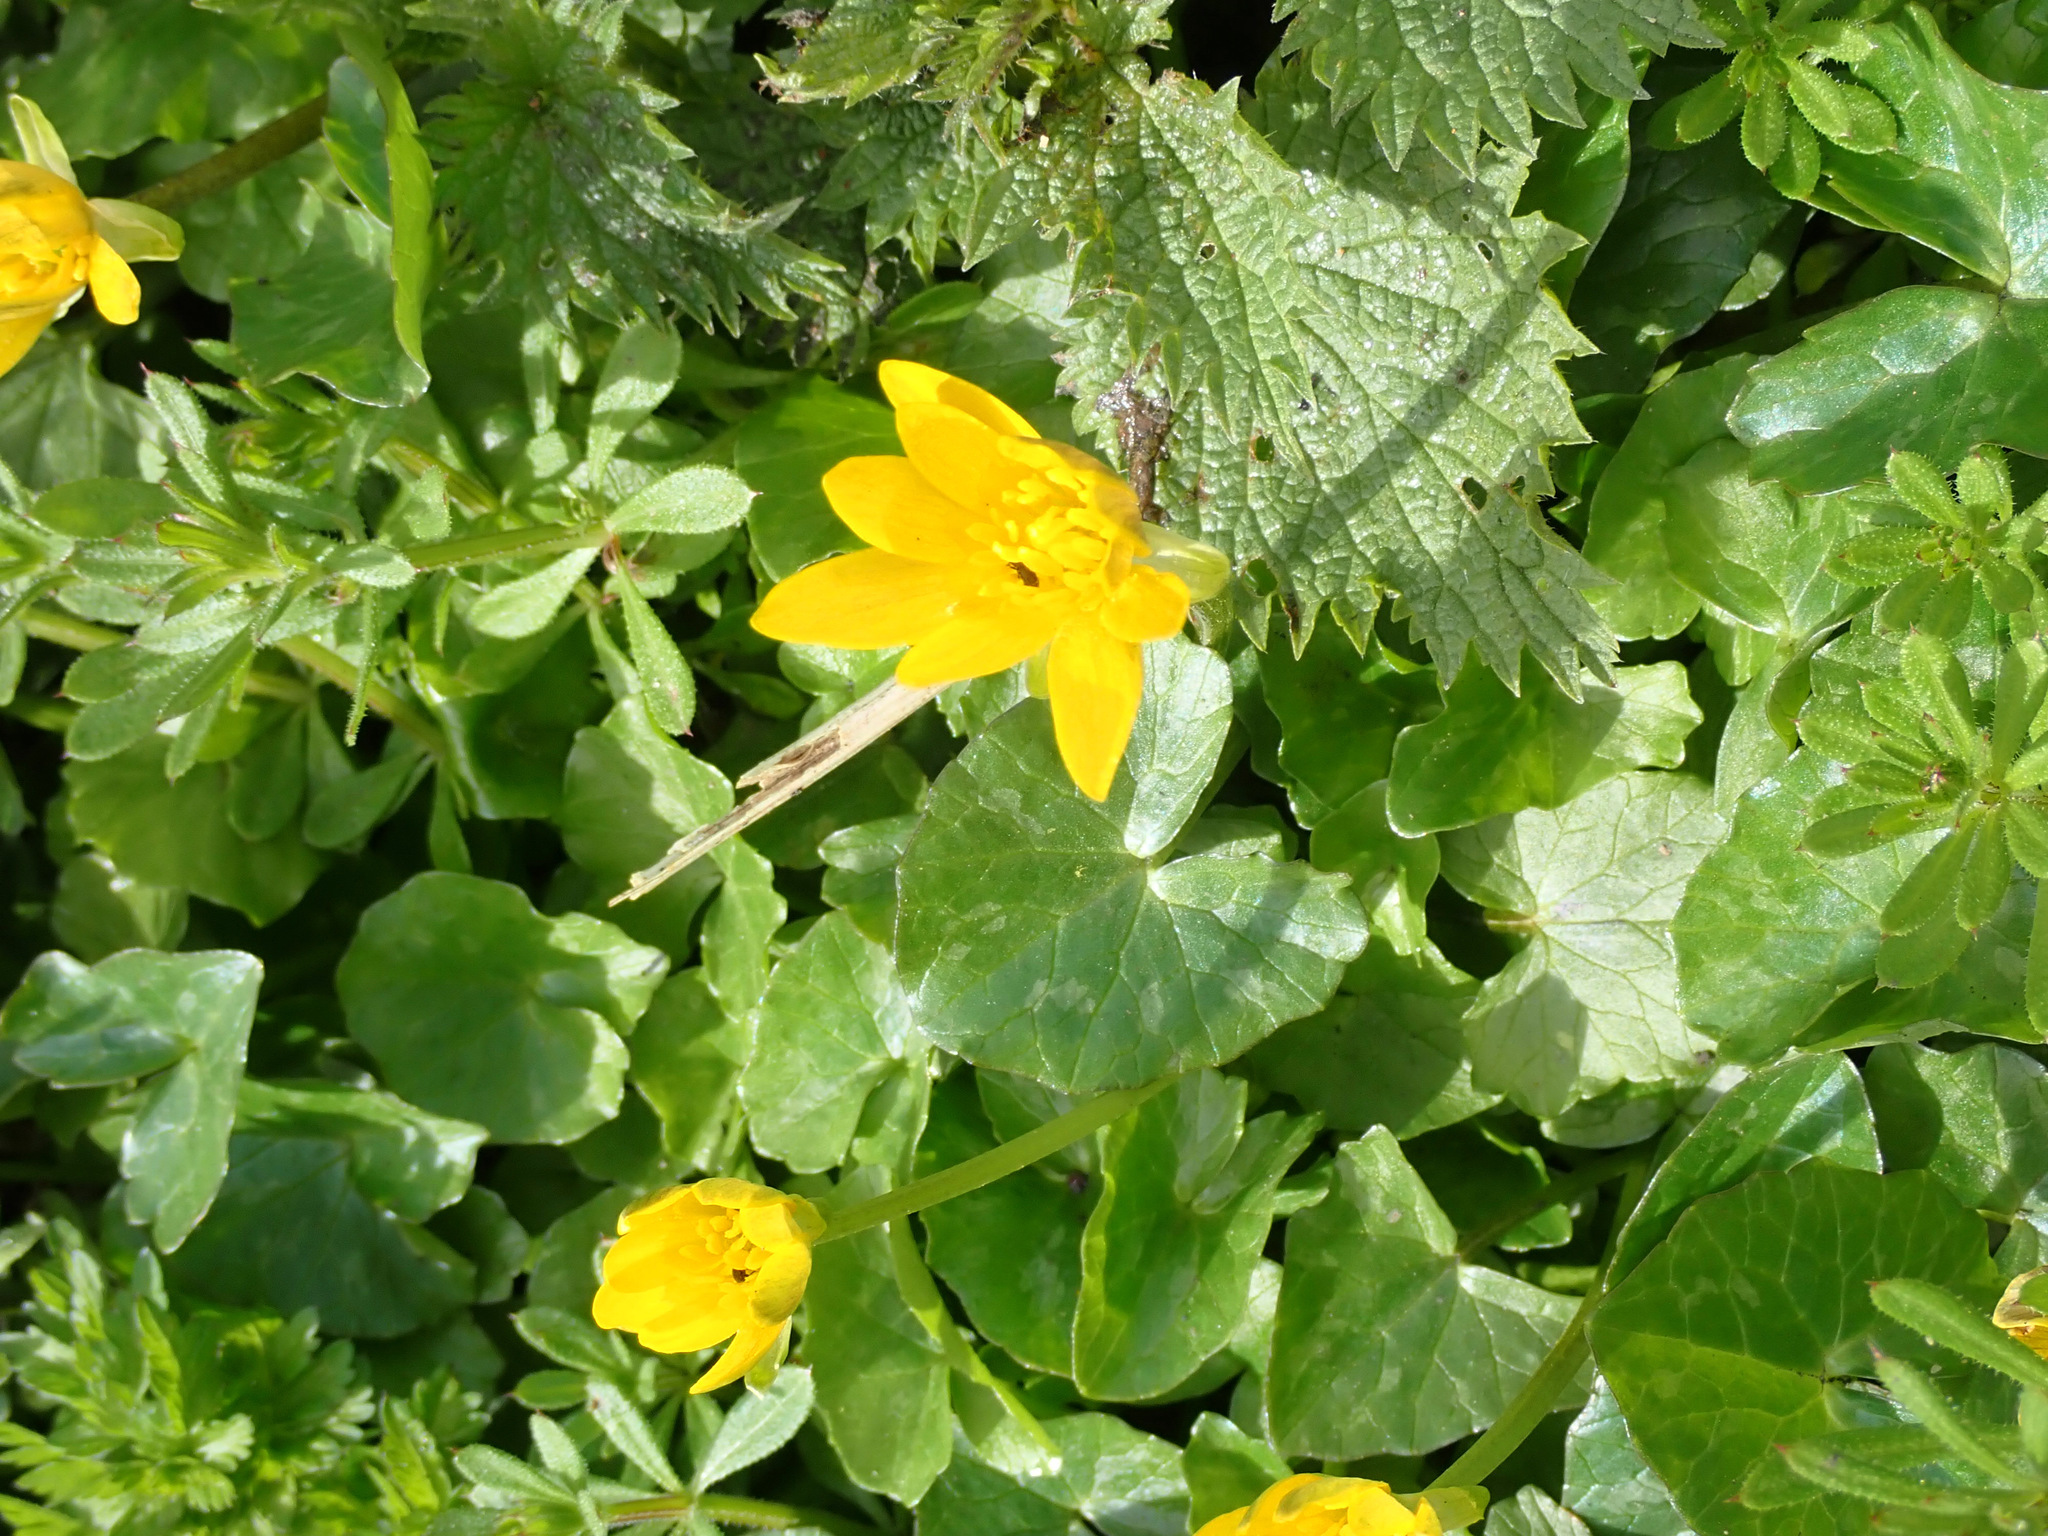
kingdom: Plantae
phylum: Tracheophyta
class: Magnoliopsida
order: Ranunculales
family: Ranunculaceae
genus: Ficaria
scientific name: Ficaria verna
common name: Lesser celandine
